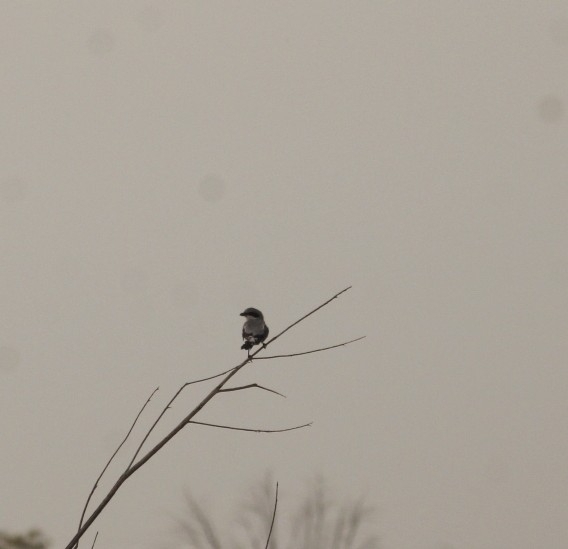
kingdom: Animalia
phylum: Chordata
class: Aves
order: Passeriformes
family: Laniidae
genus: Lanius
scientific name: Lanius ludovicianus
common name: Loggerhead shrike
